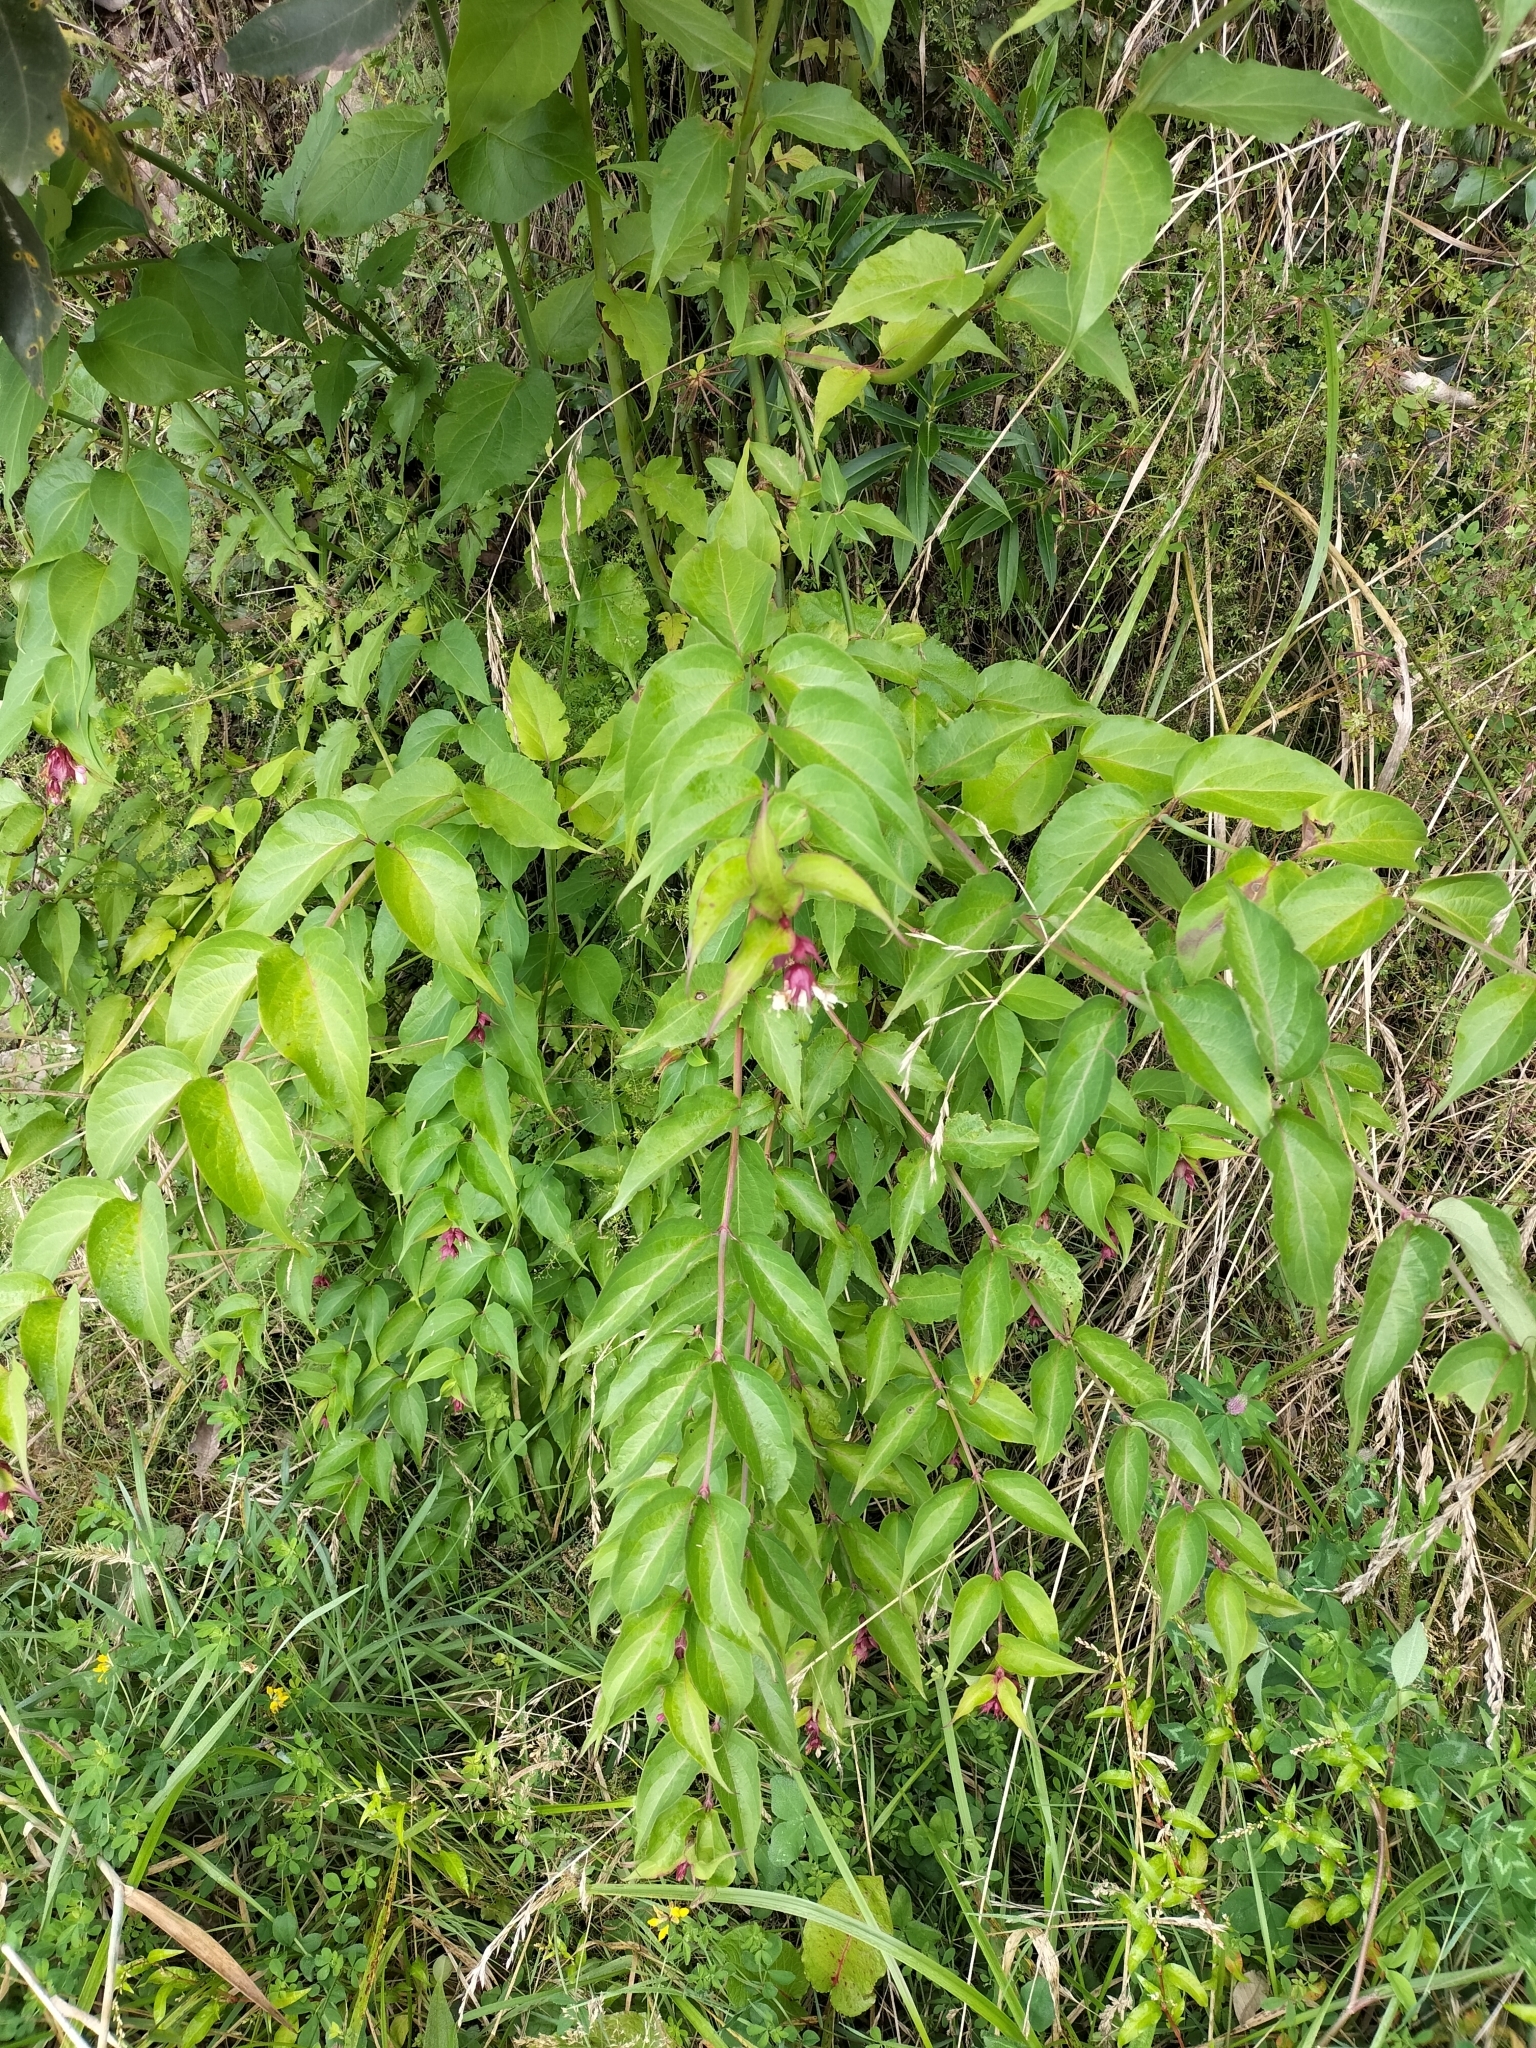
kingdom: Plantae
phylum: Tracheophyta
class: Magnoliopsida
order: Dipsacales
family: Caprifoliaceae
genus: Leycesteria
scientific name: Leycesteria formosa
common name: Himalayan honeysuckle
